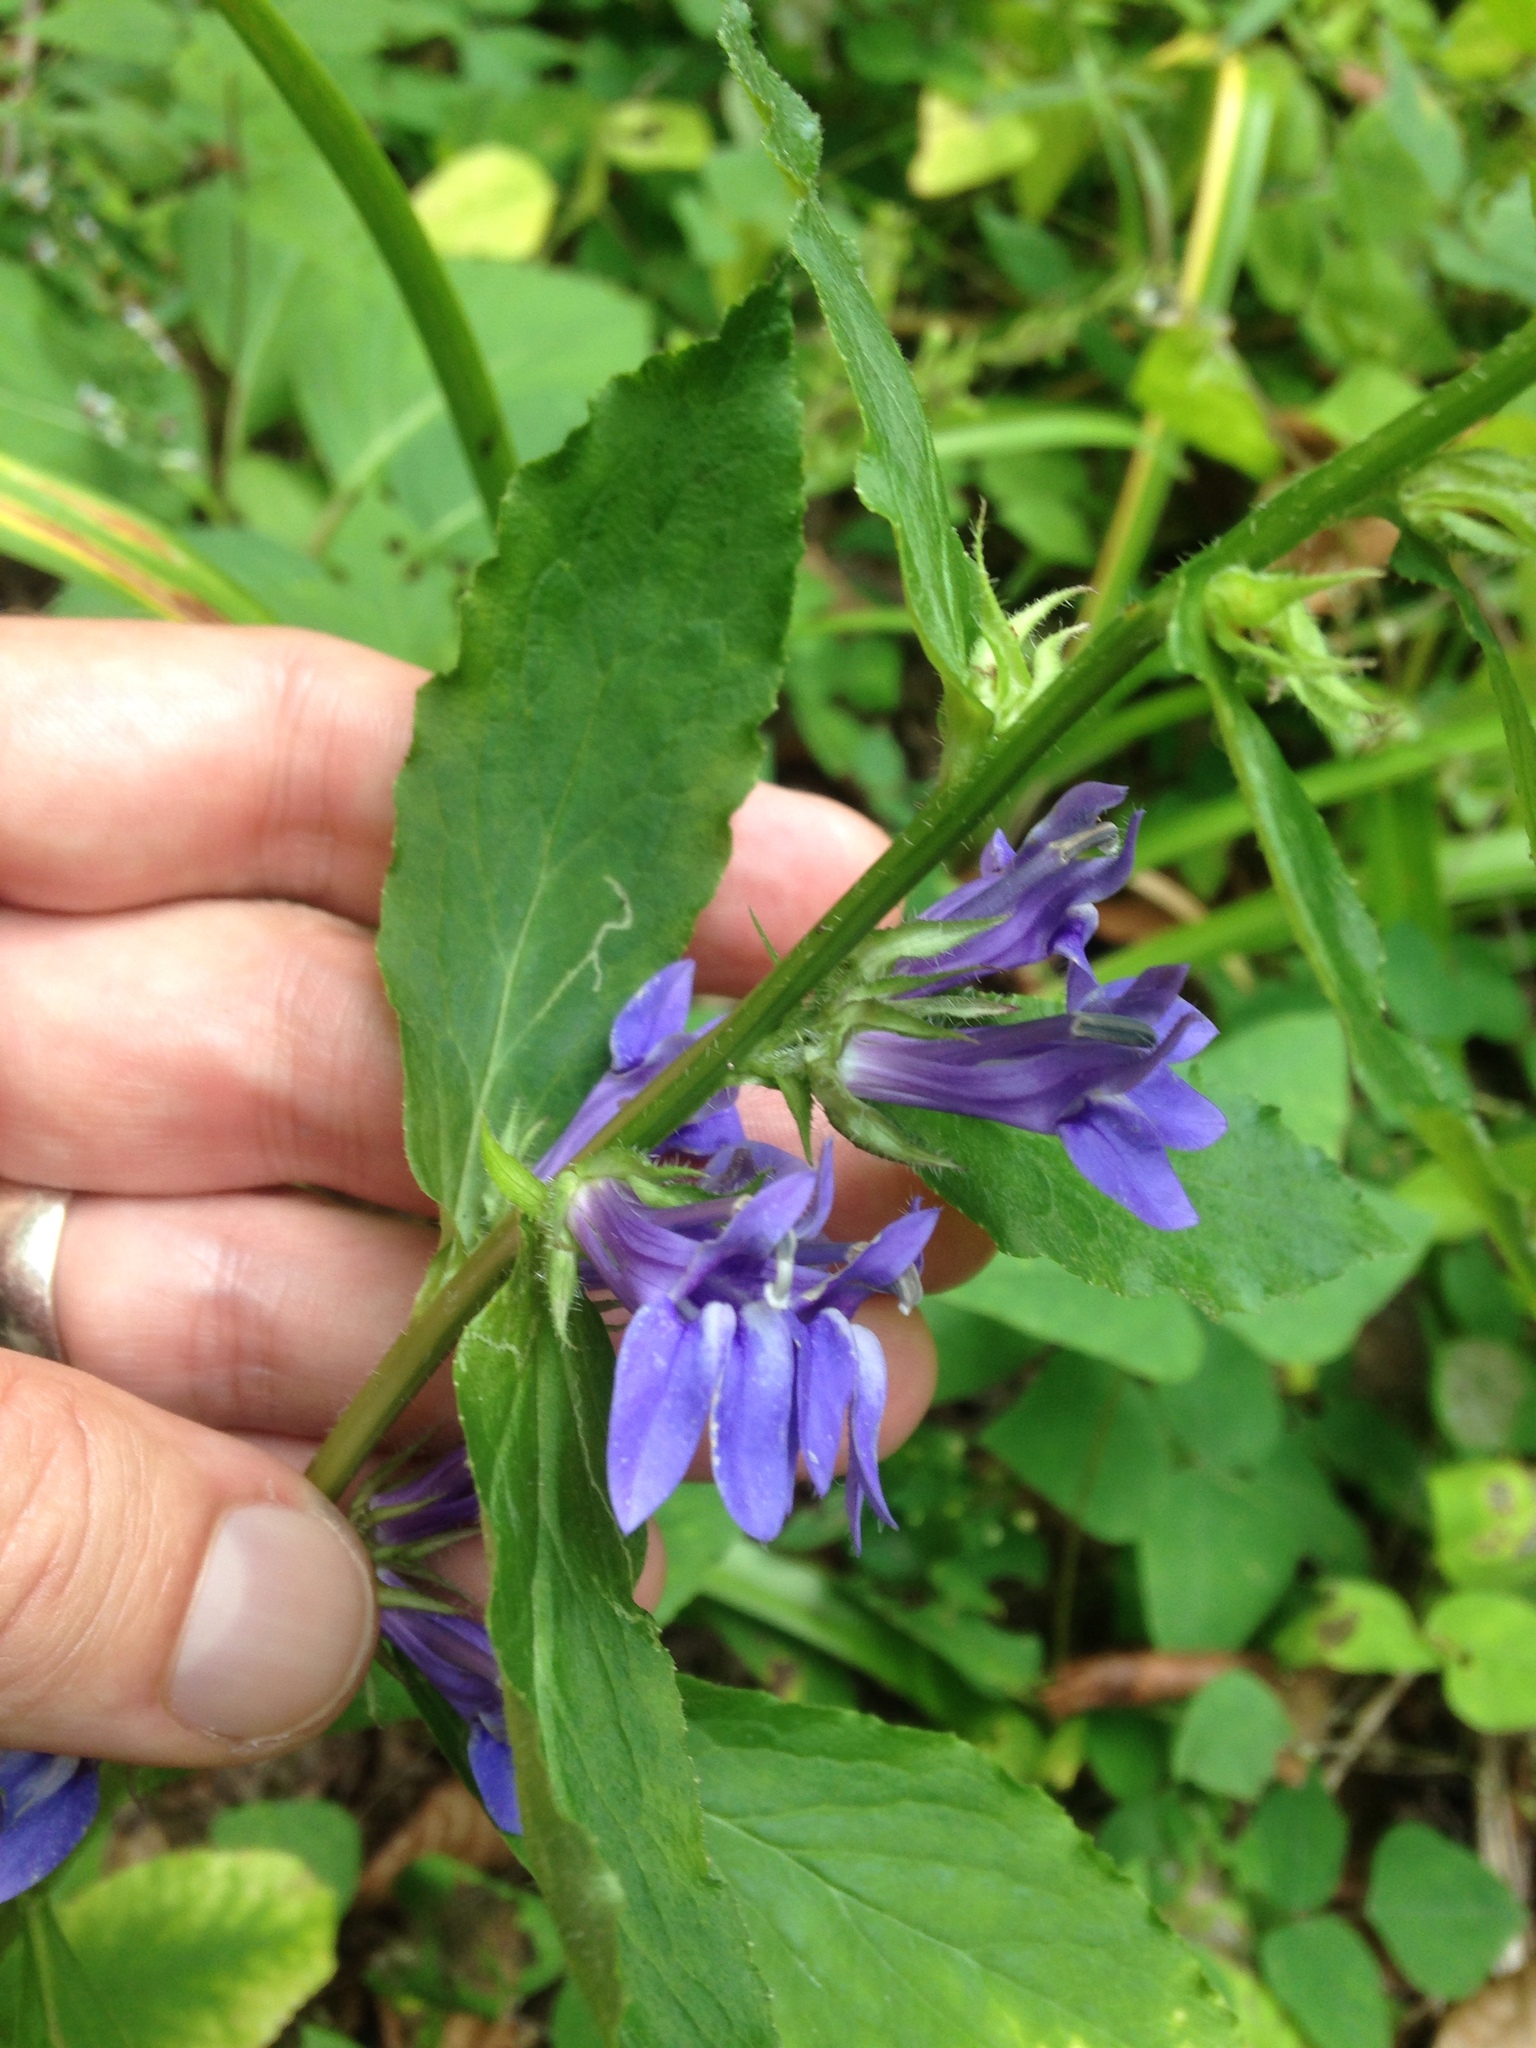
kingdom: Plantae
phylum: Tracheophyta
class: Magnoliopsida
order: Asterales
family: Campanulaceae
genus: Lobelia
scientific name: Lobelia siphilitica
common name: Great lobelia
